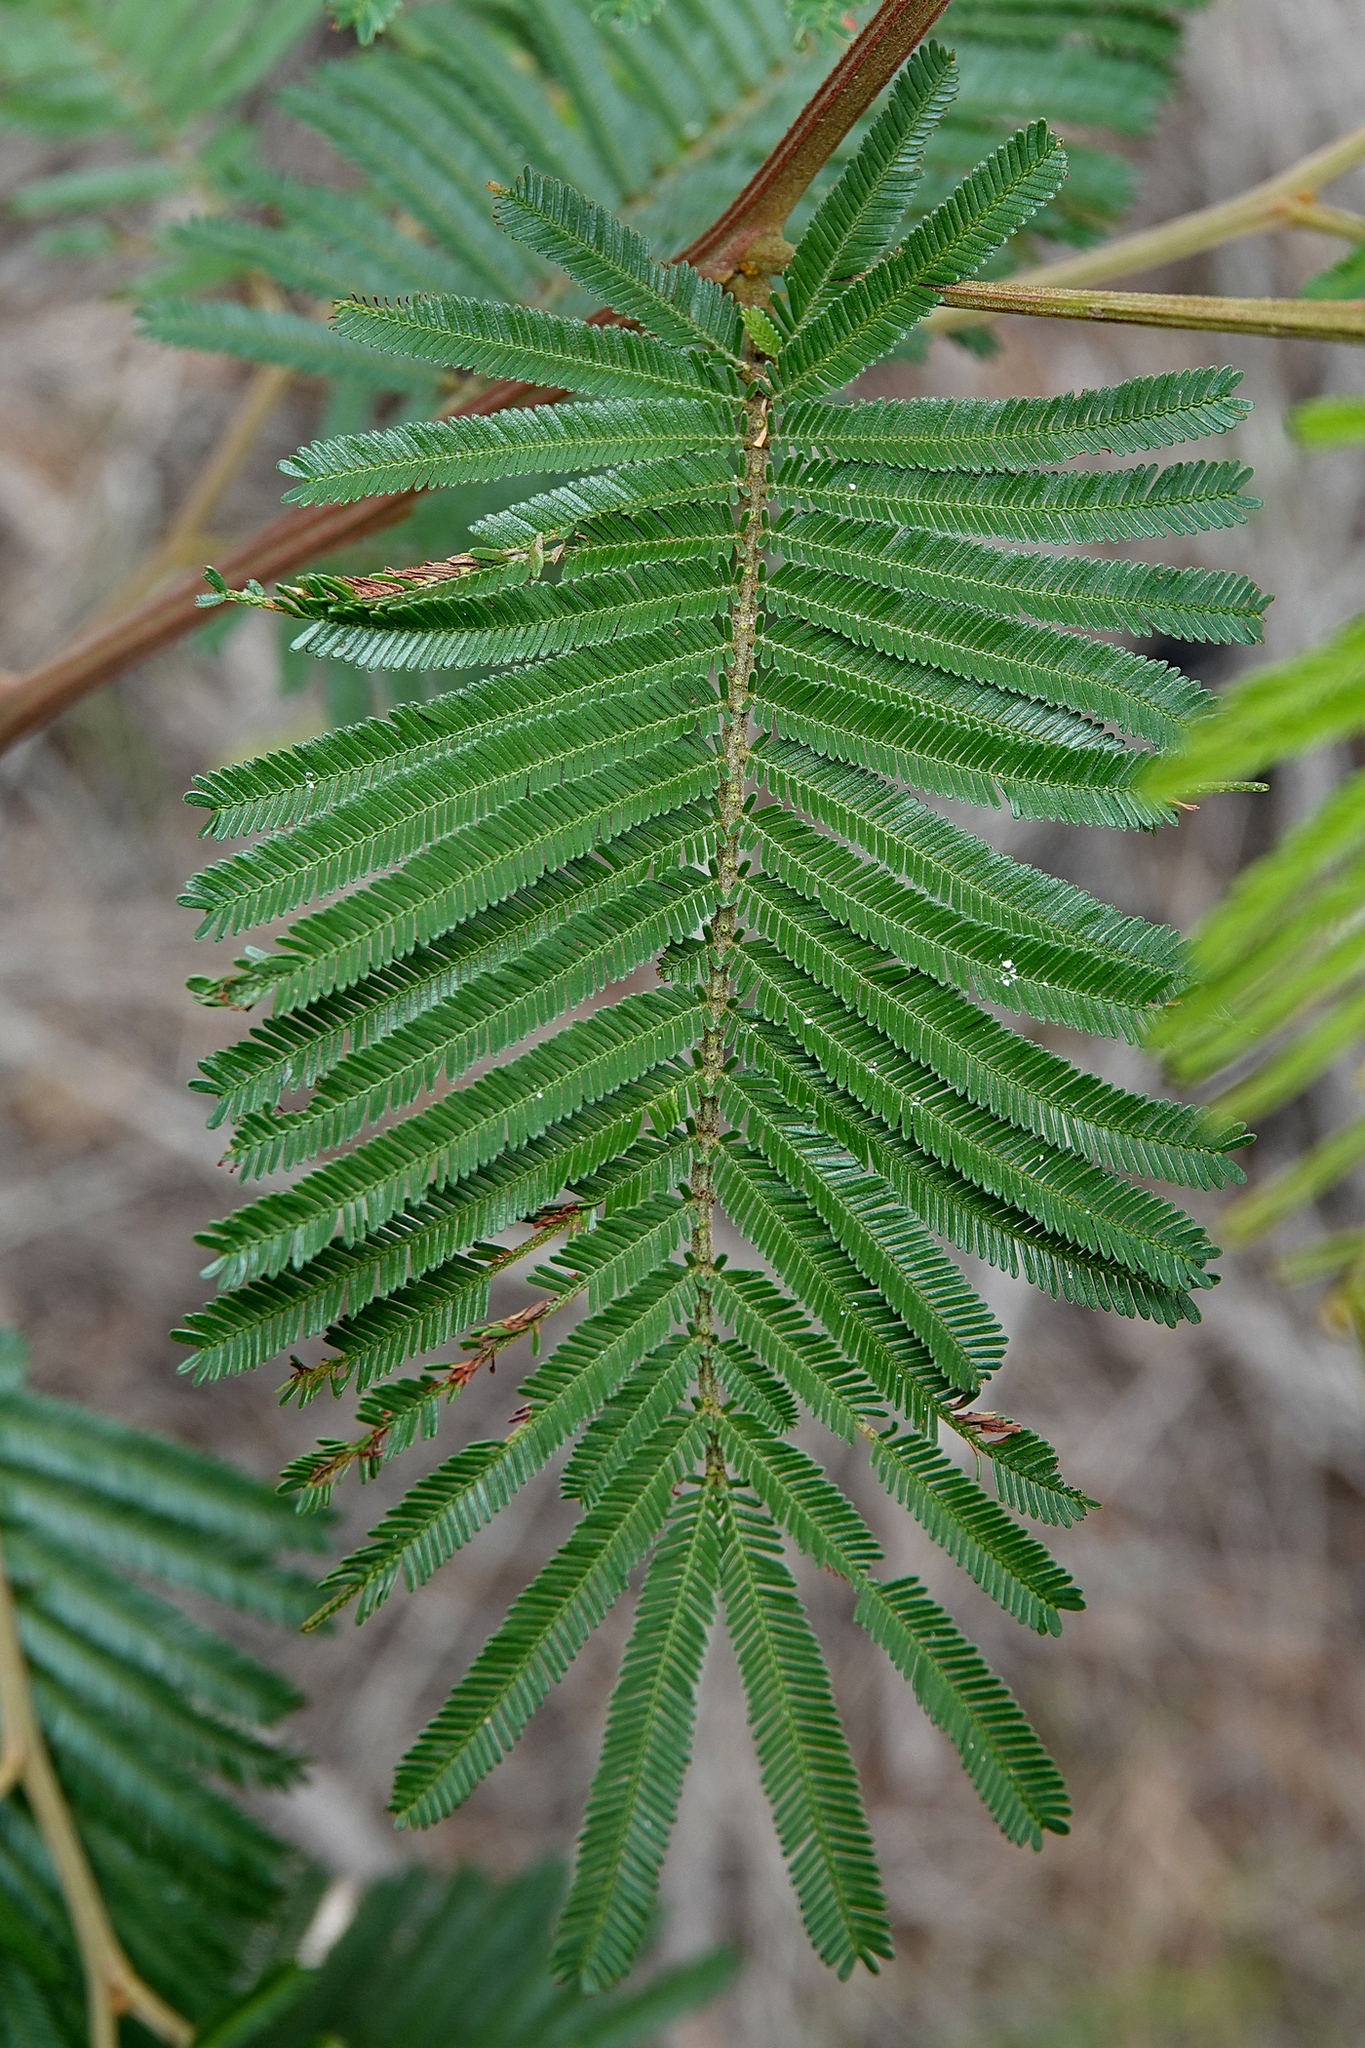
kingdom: Plantae
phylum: Tracheophyta
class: Magnoliopsida
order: Fabales
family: Fabaceae
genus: Acacia
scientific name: Acacia mearnsii
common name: Black wattle
